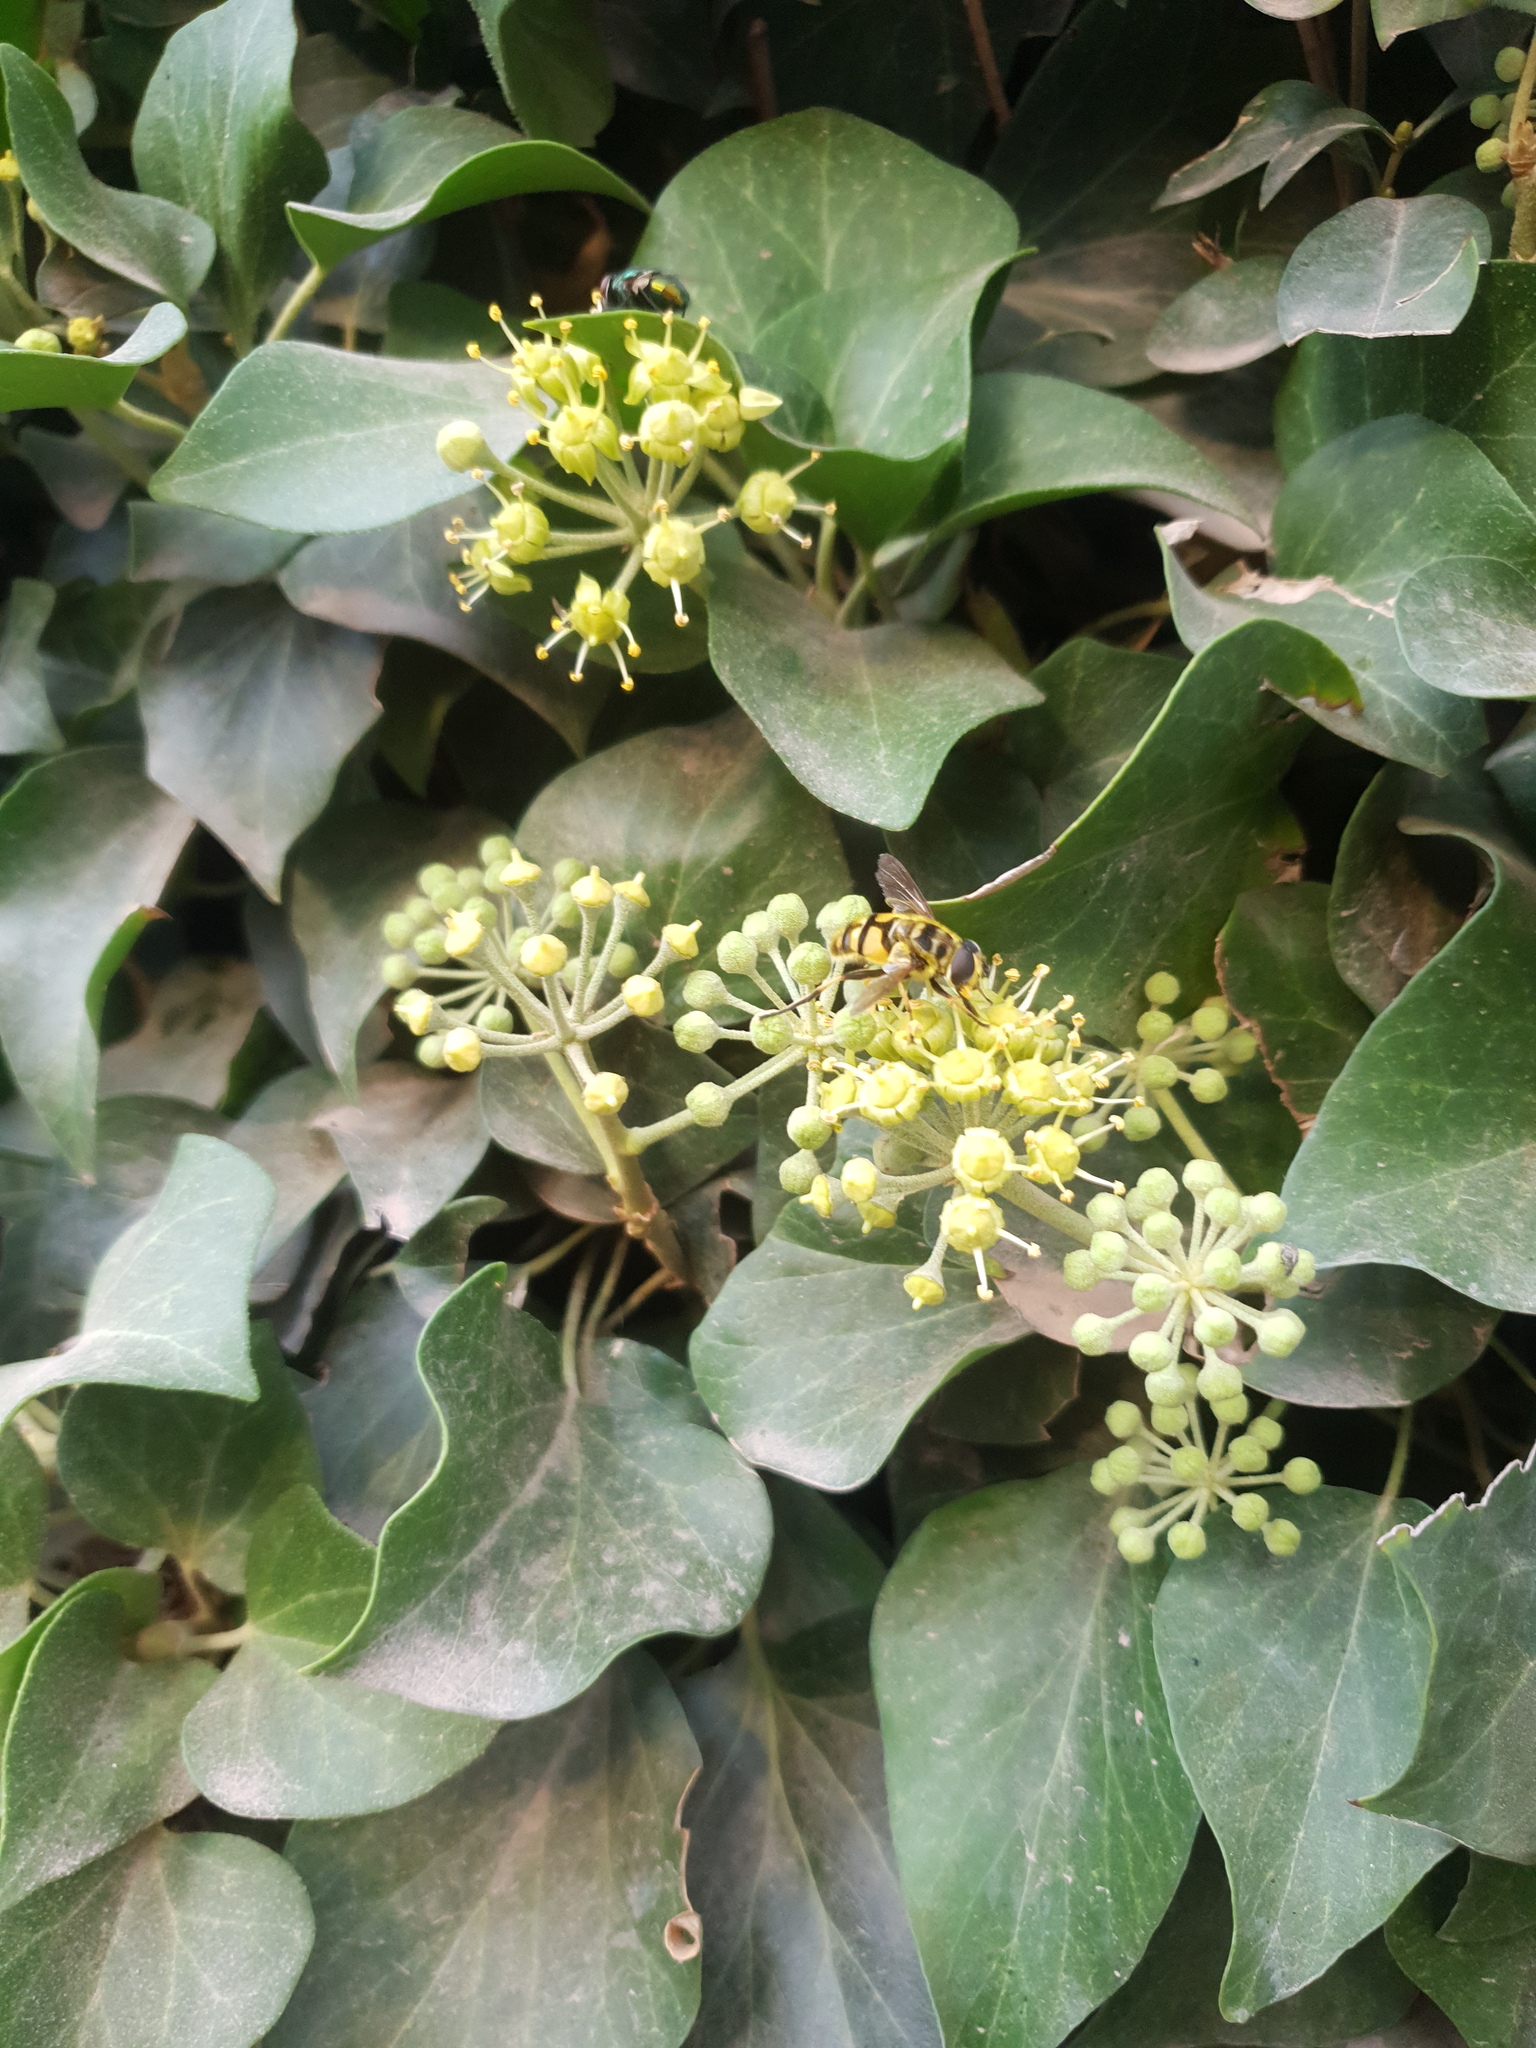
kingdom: Animalia
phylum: Arthropoda
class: Insecta
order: Diptera
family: Syrphidae
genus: Myathropa
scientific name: Myathropa florea
